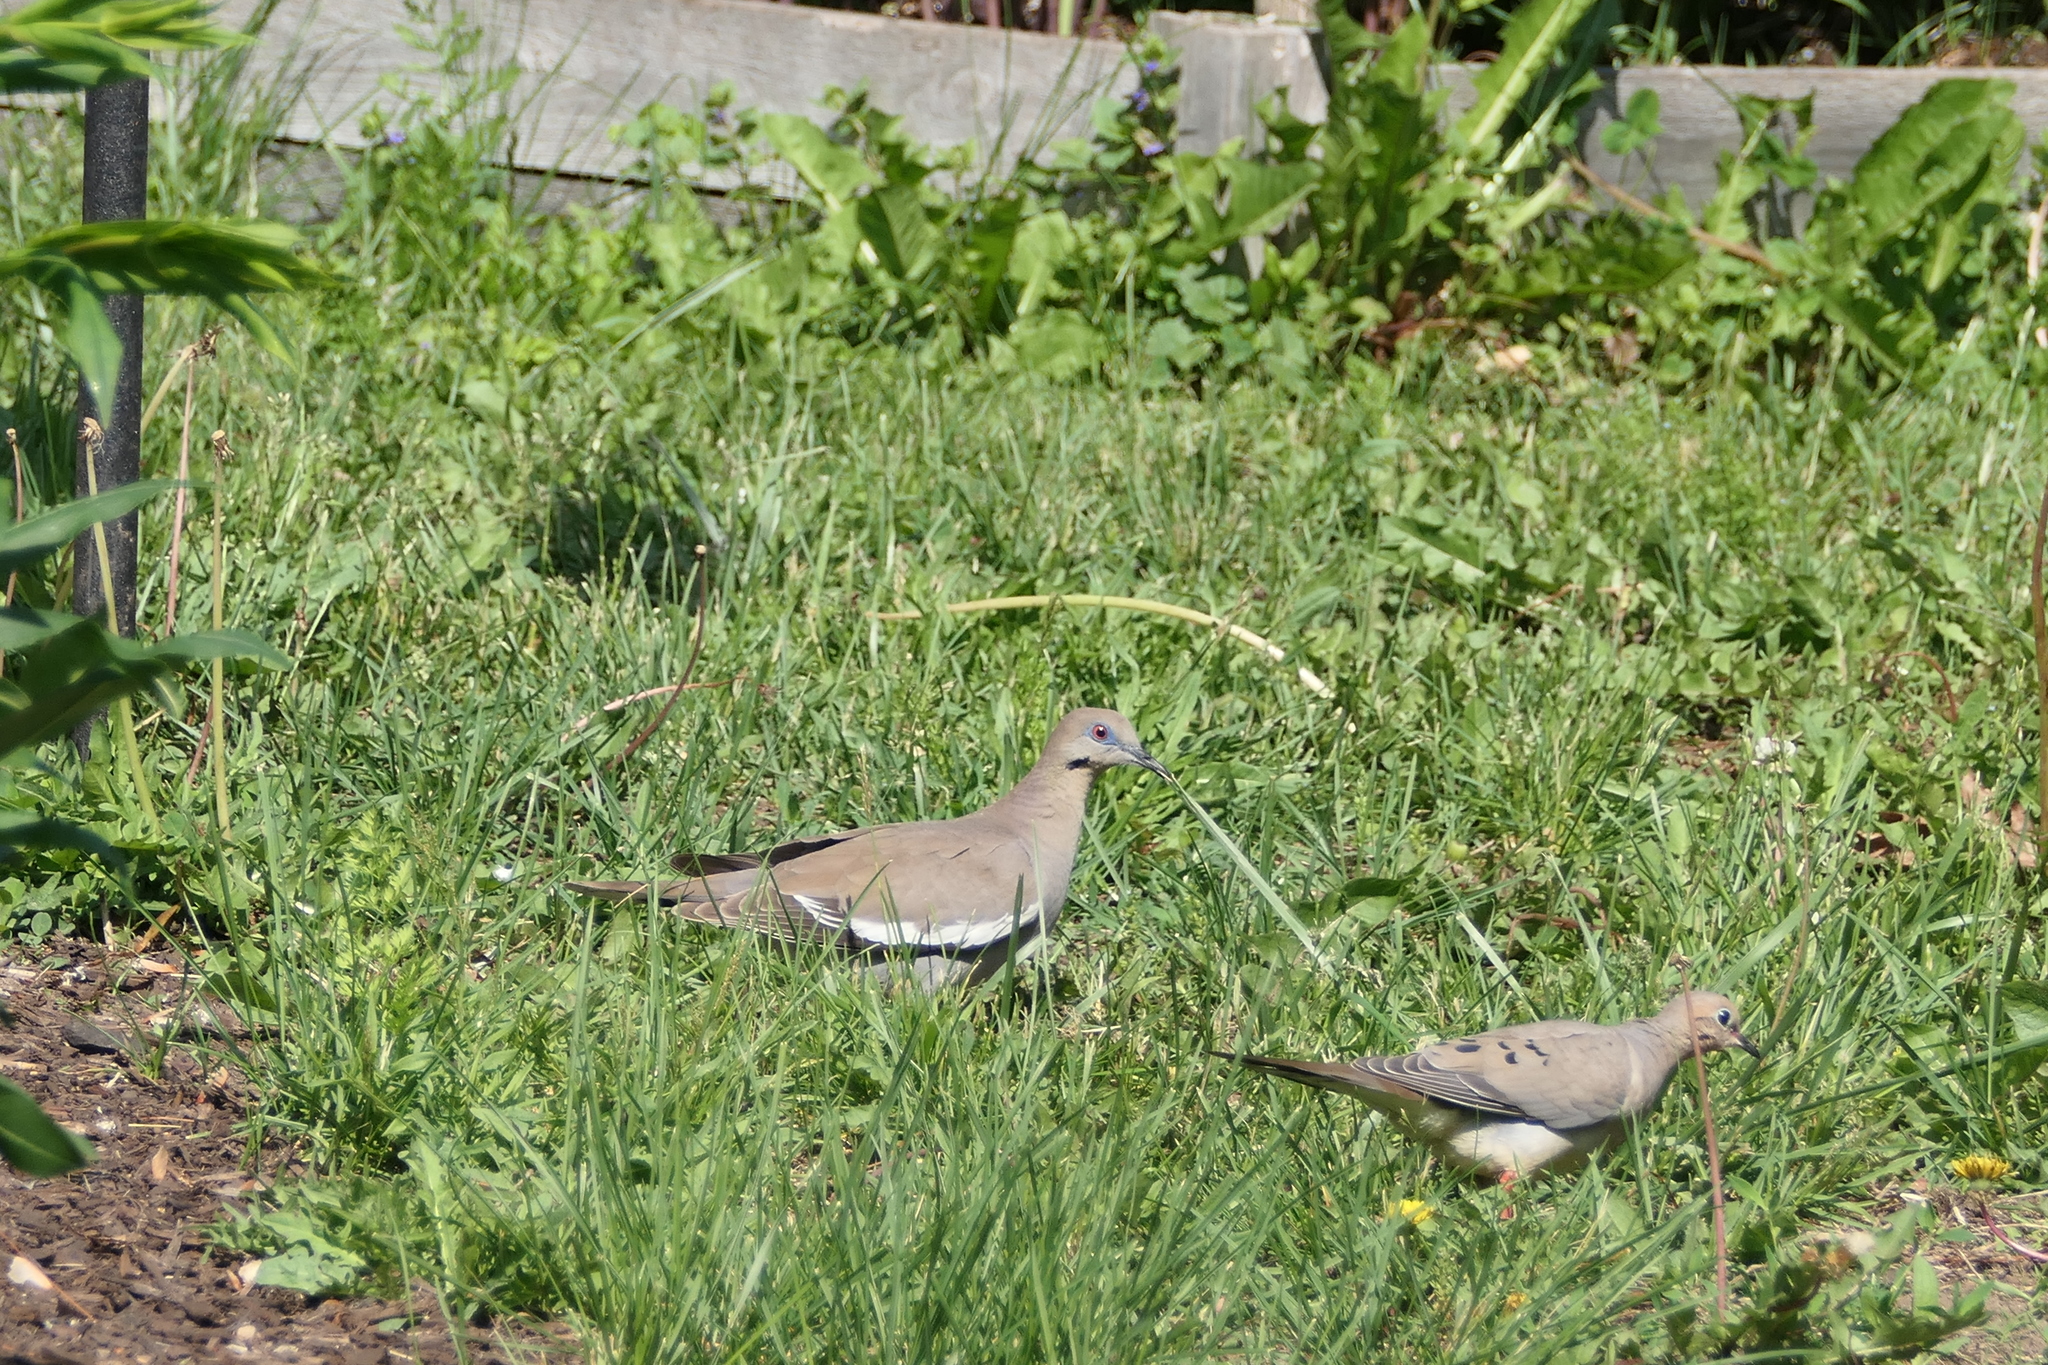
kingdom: Animalia
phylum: Chordata
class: Aves
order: Columbiformes
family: Columbidae
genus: Zenaida
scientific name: Zenaida macroura
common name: Mourning dove
